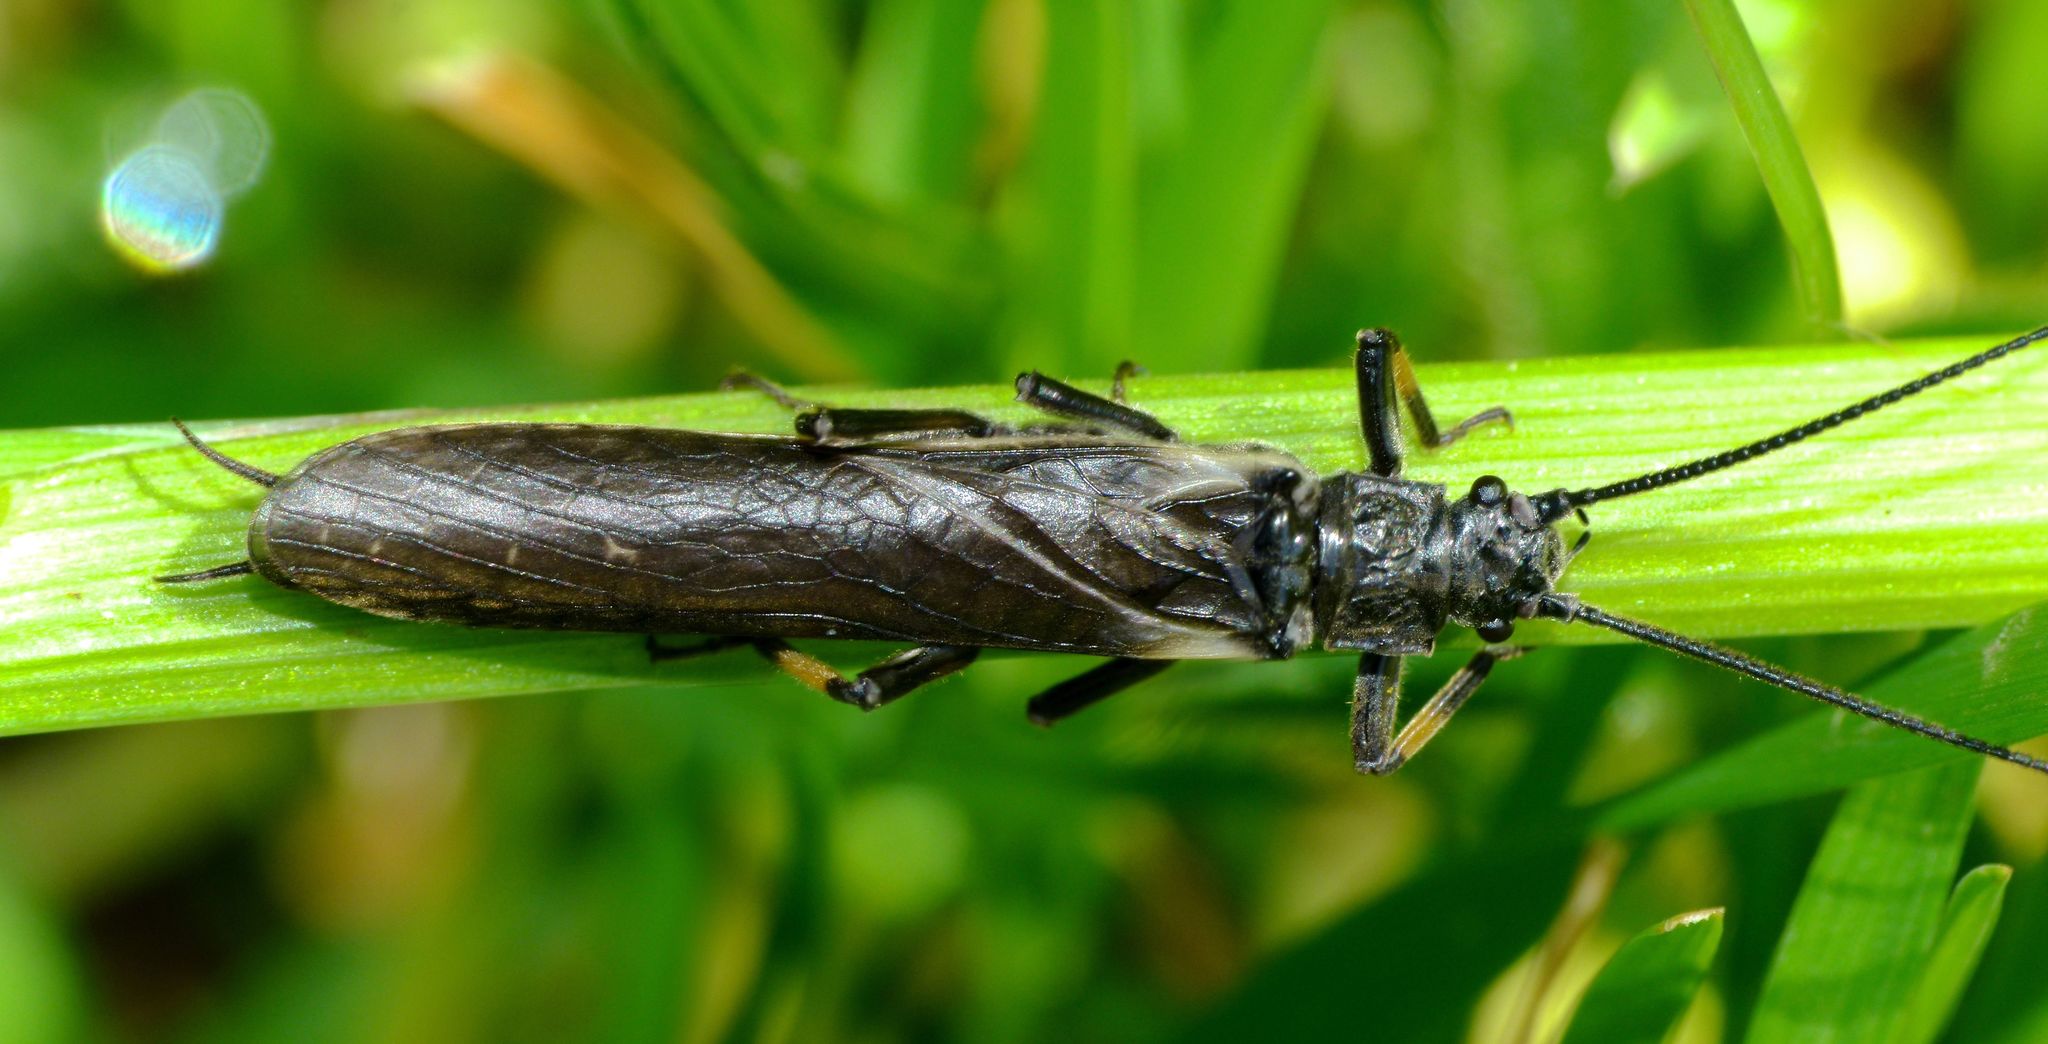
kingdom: Animalia
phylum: Arthropoda
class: Insecta
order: Plecoptera
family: Austroperlidae
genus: Austroperla
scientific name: Austroperla cyrene
